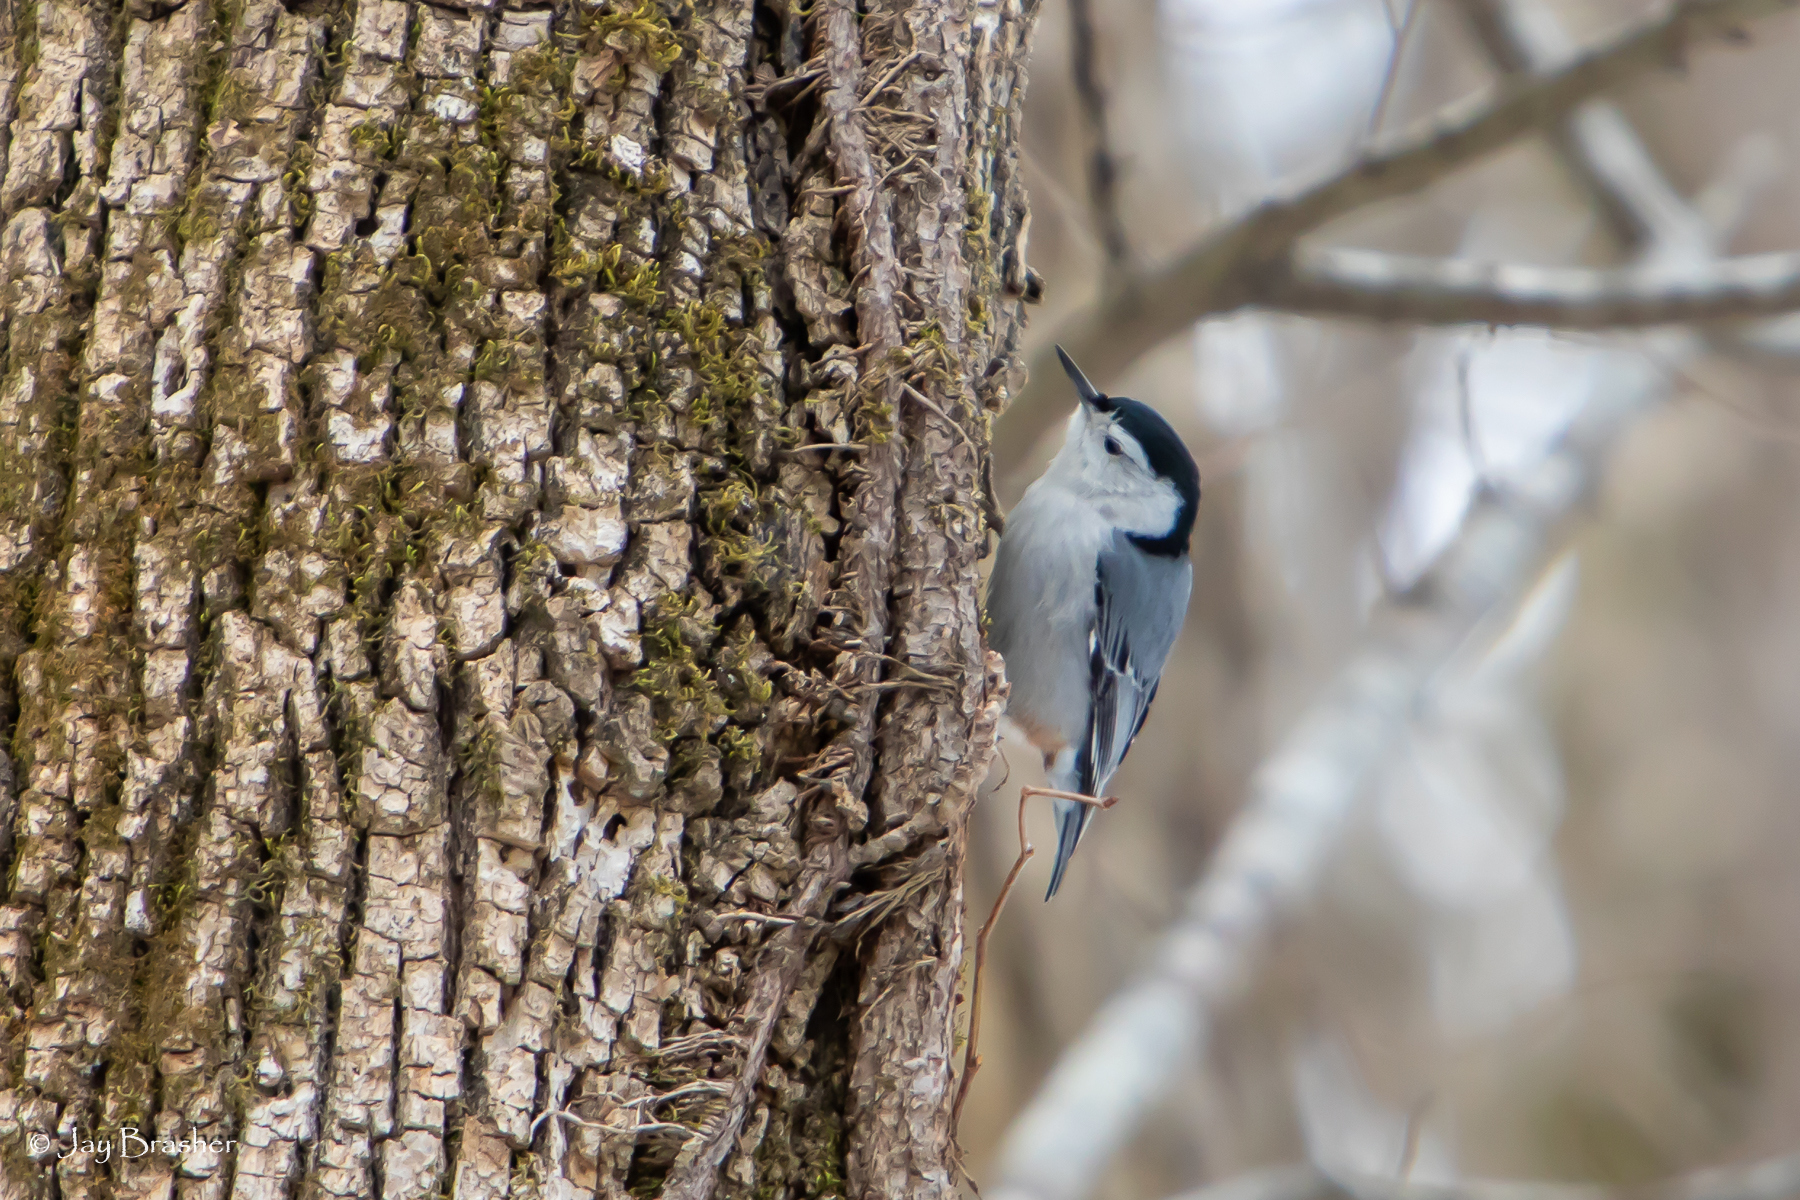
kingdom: Animalia
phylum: Chordata
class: Aves
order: Passeriformes
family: Sittidae
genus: Sitta
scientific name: Sitta carolinensis
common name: White-breasted nuthatch
